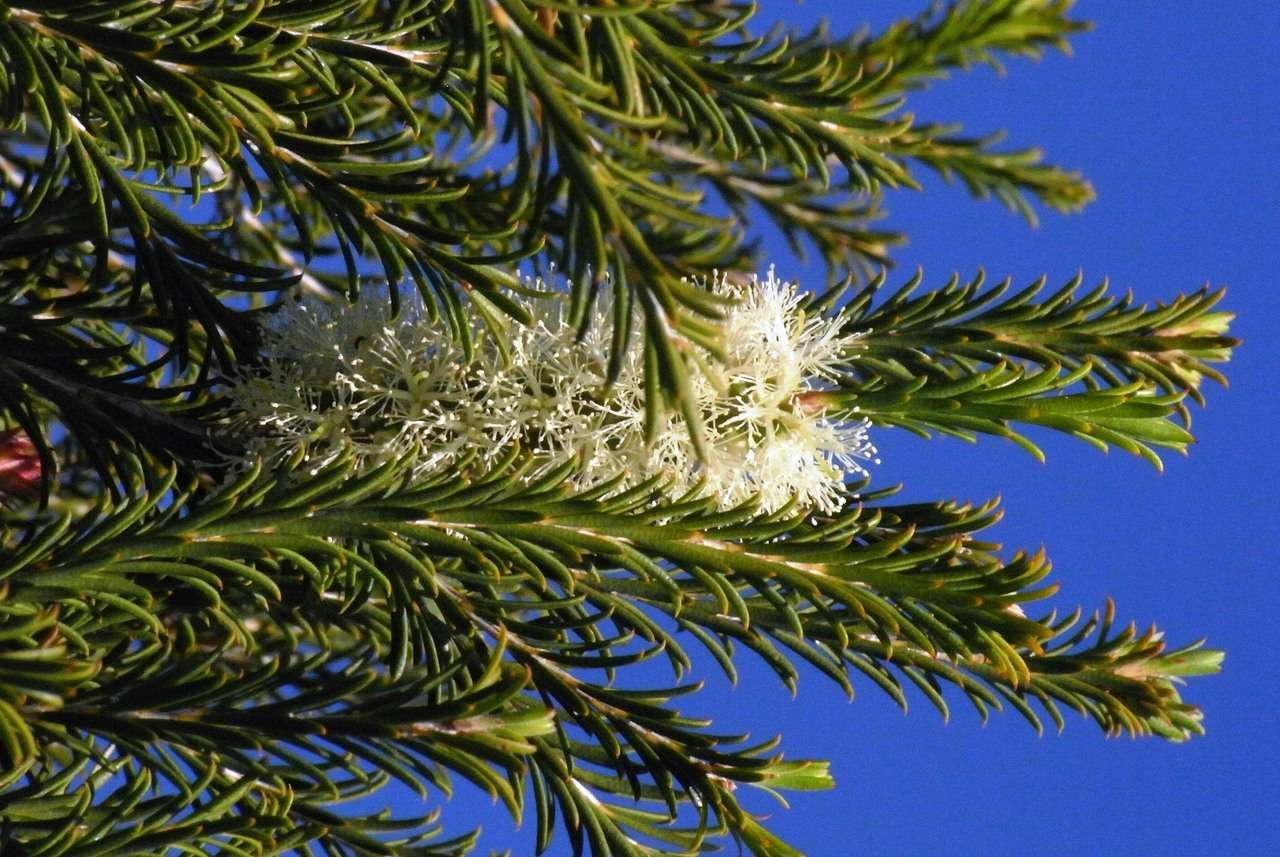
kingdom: Plantae
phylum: Tracheophyta
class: Magnoliopsida
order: Myrtales
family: Myrtaceae
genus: Melaleuca
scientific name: Melaleuca armillaris
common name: Bracelet honey myrtle
